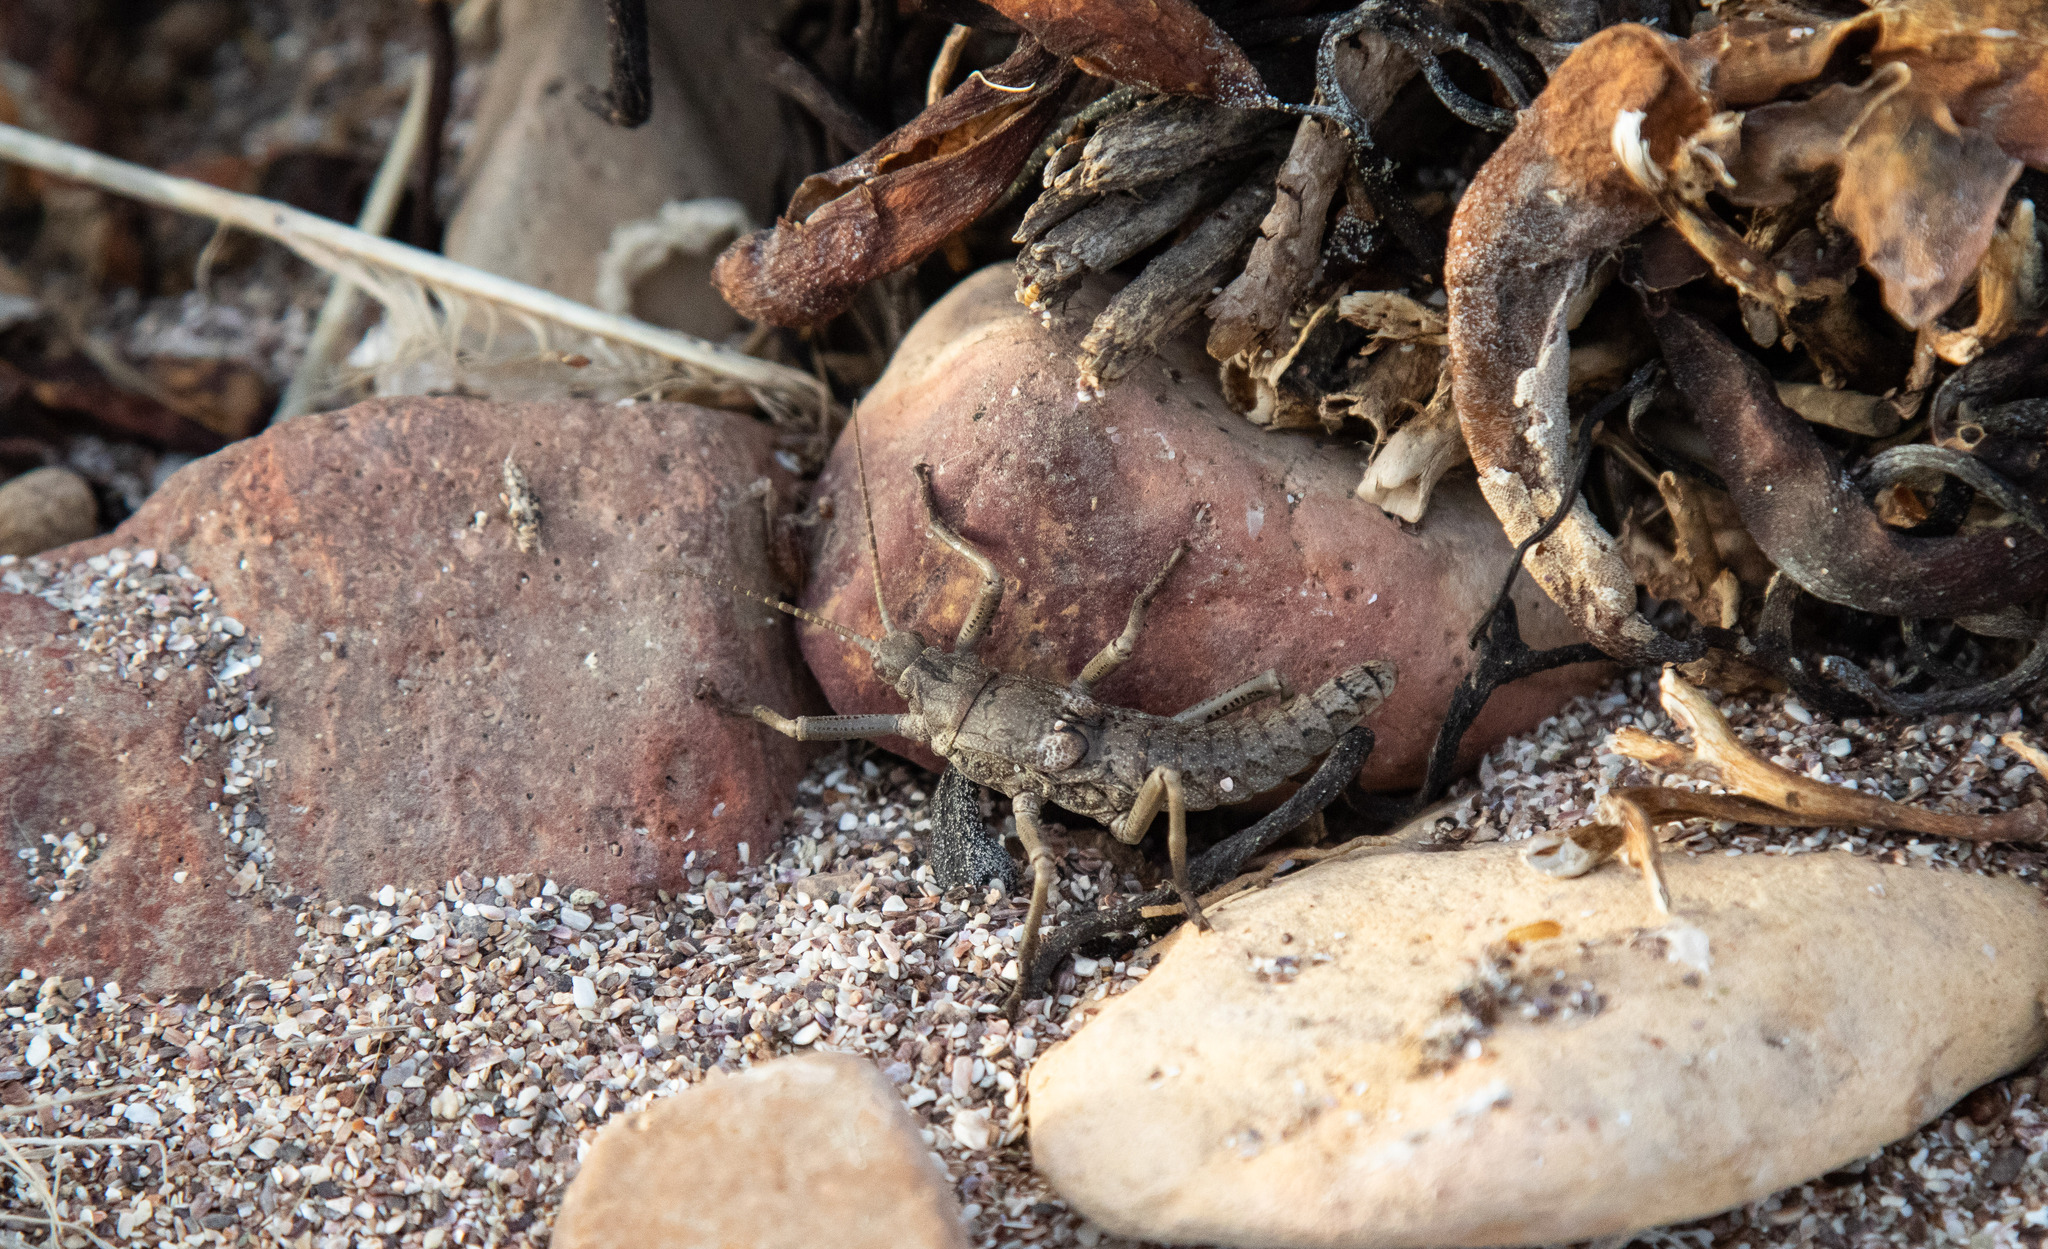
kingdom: Animalia
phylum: Arthropoda
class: Insecta
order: Phasmida
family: Agathemeridae
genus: Agathemera
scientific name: Agathemera luteola
